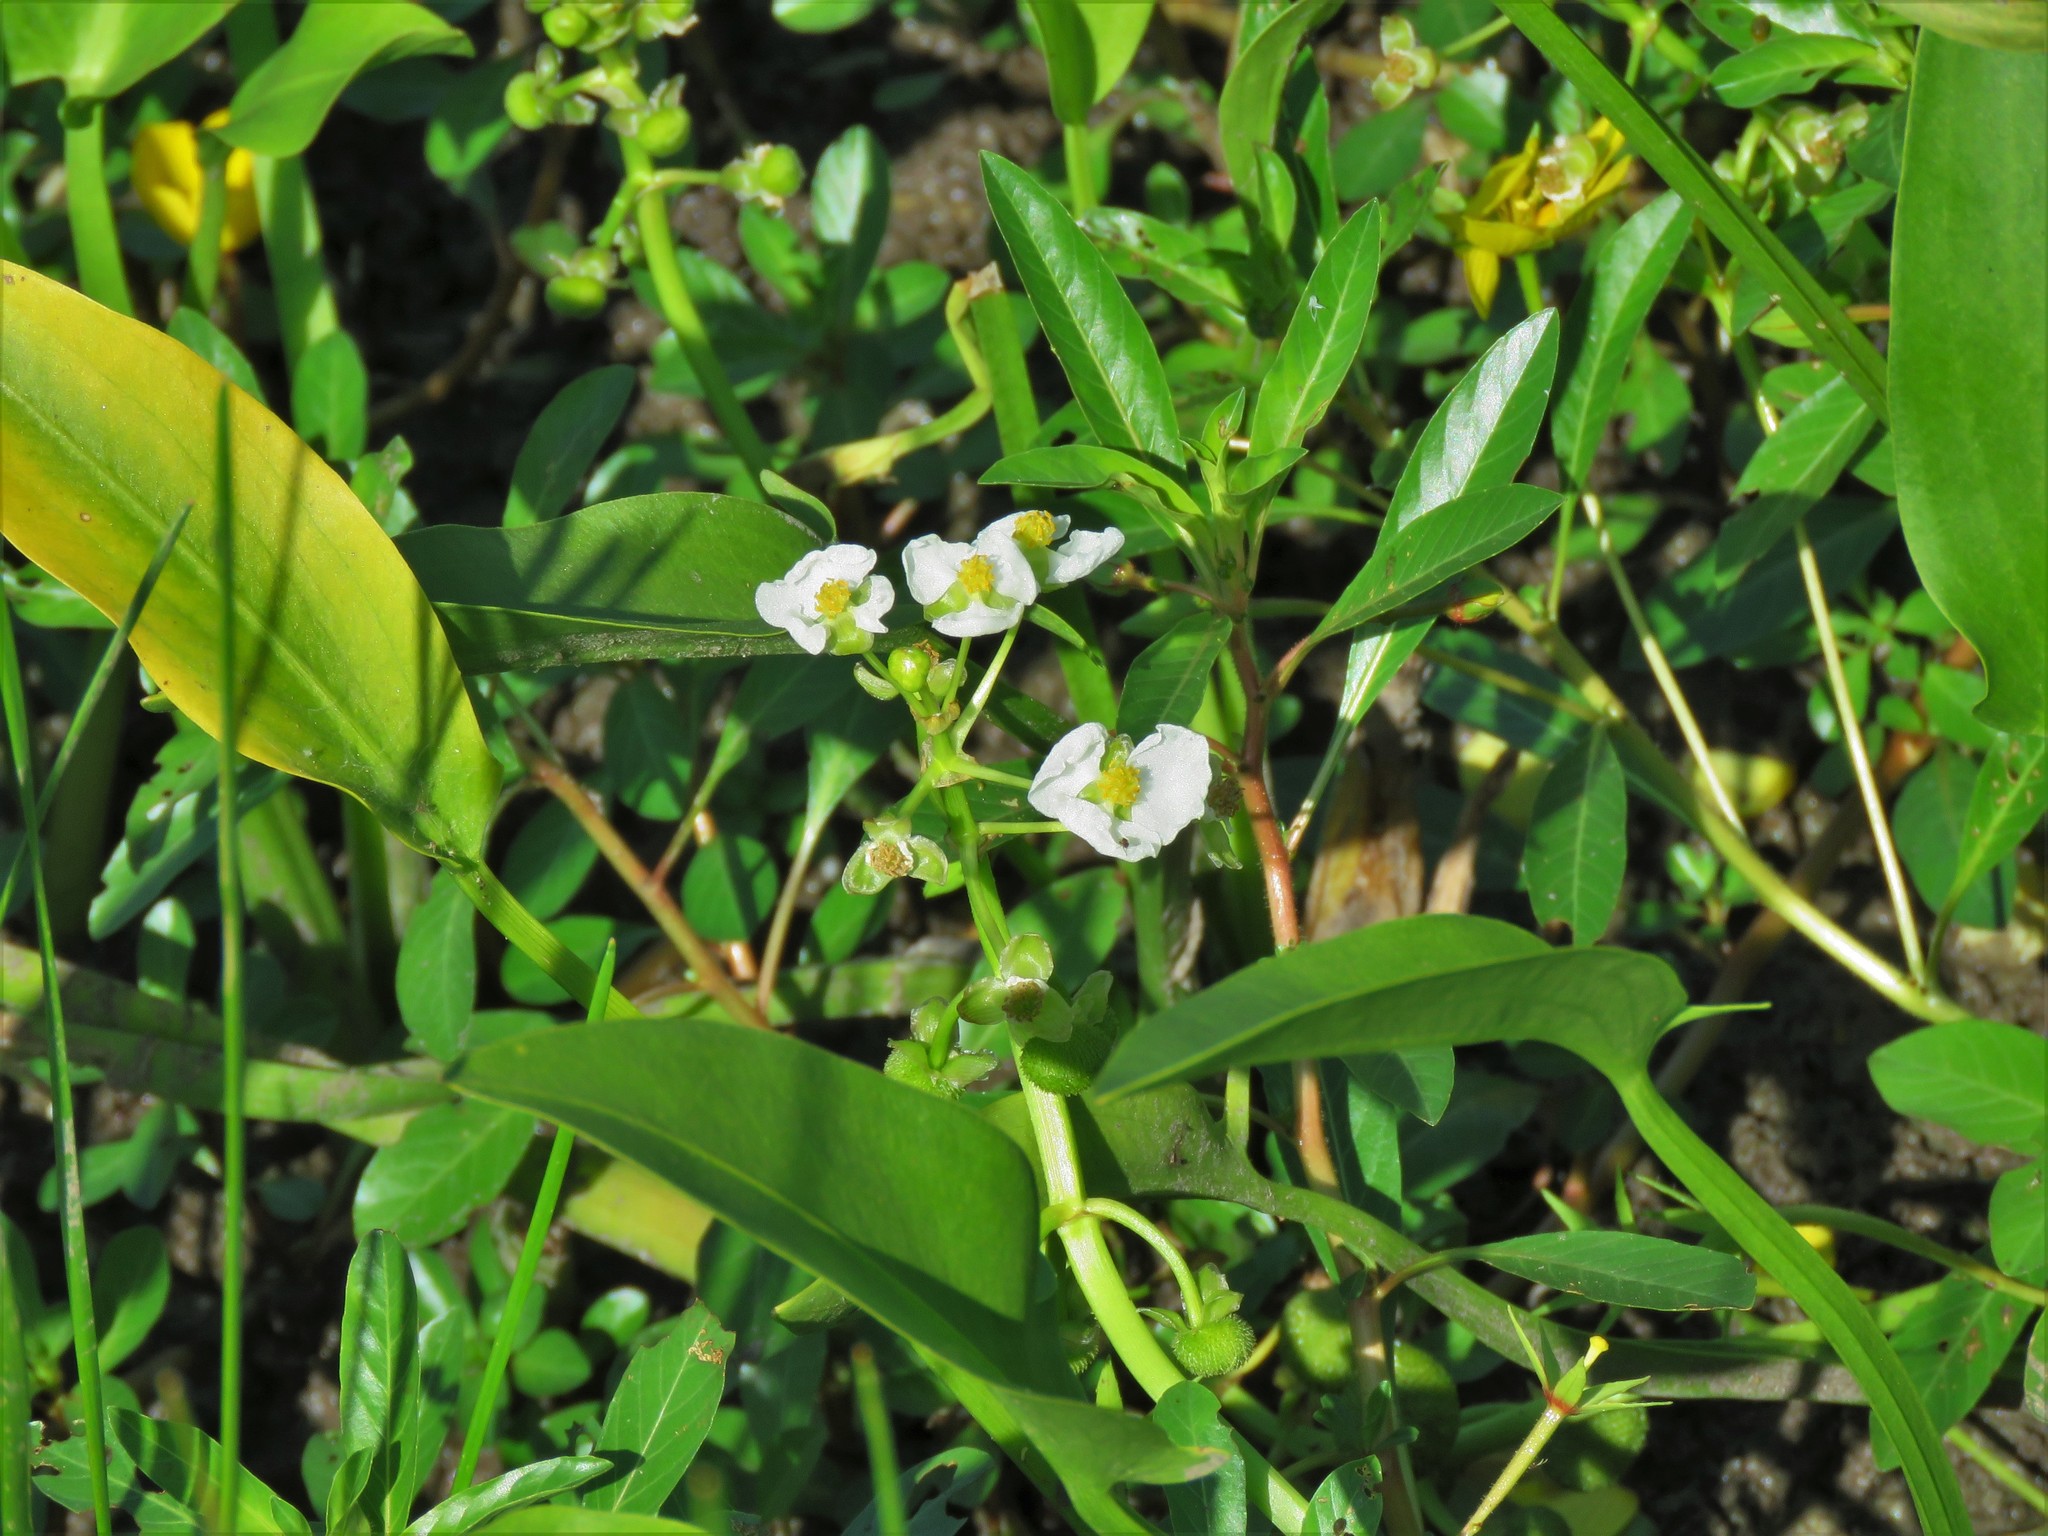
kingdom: Plantae
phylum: Tracheophyta
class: Liliopsida
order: Alismatales
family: Alismataceae
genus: Sagittaria
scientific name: Sagittaria platyphylla
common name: Broad-leaf arrowhead
